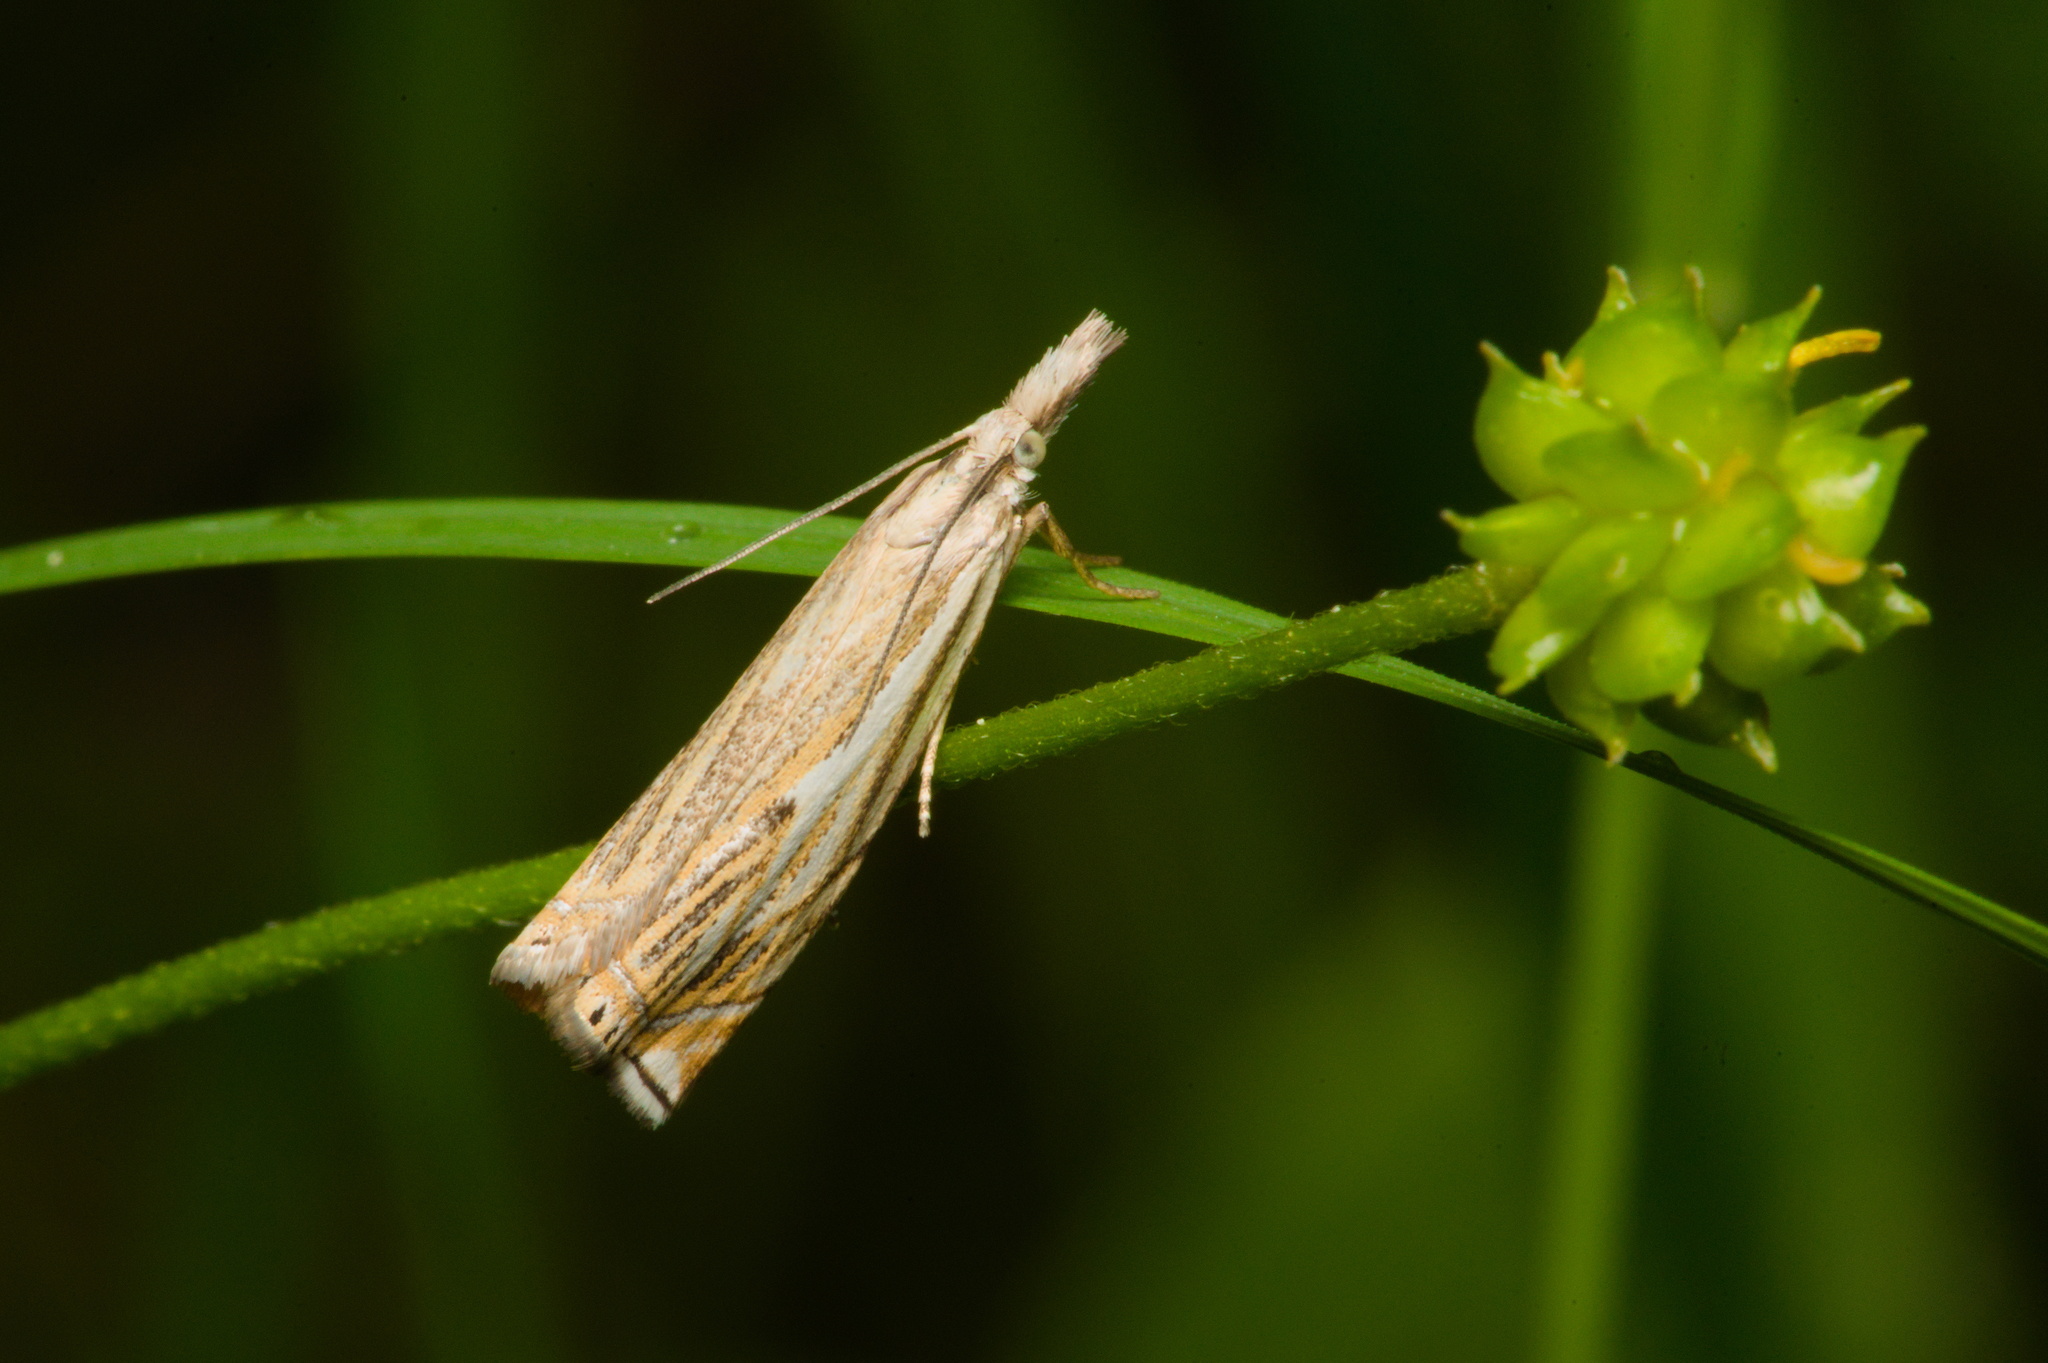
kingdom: Animalia
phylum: Arthropoda
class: Insecta
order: Lepidoptera
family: Crambidae
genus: Crambus
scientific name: Crambus nemorella
